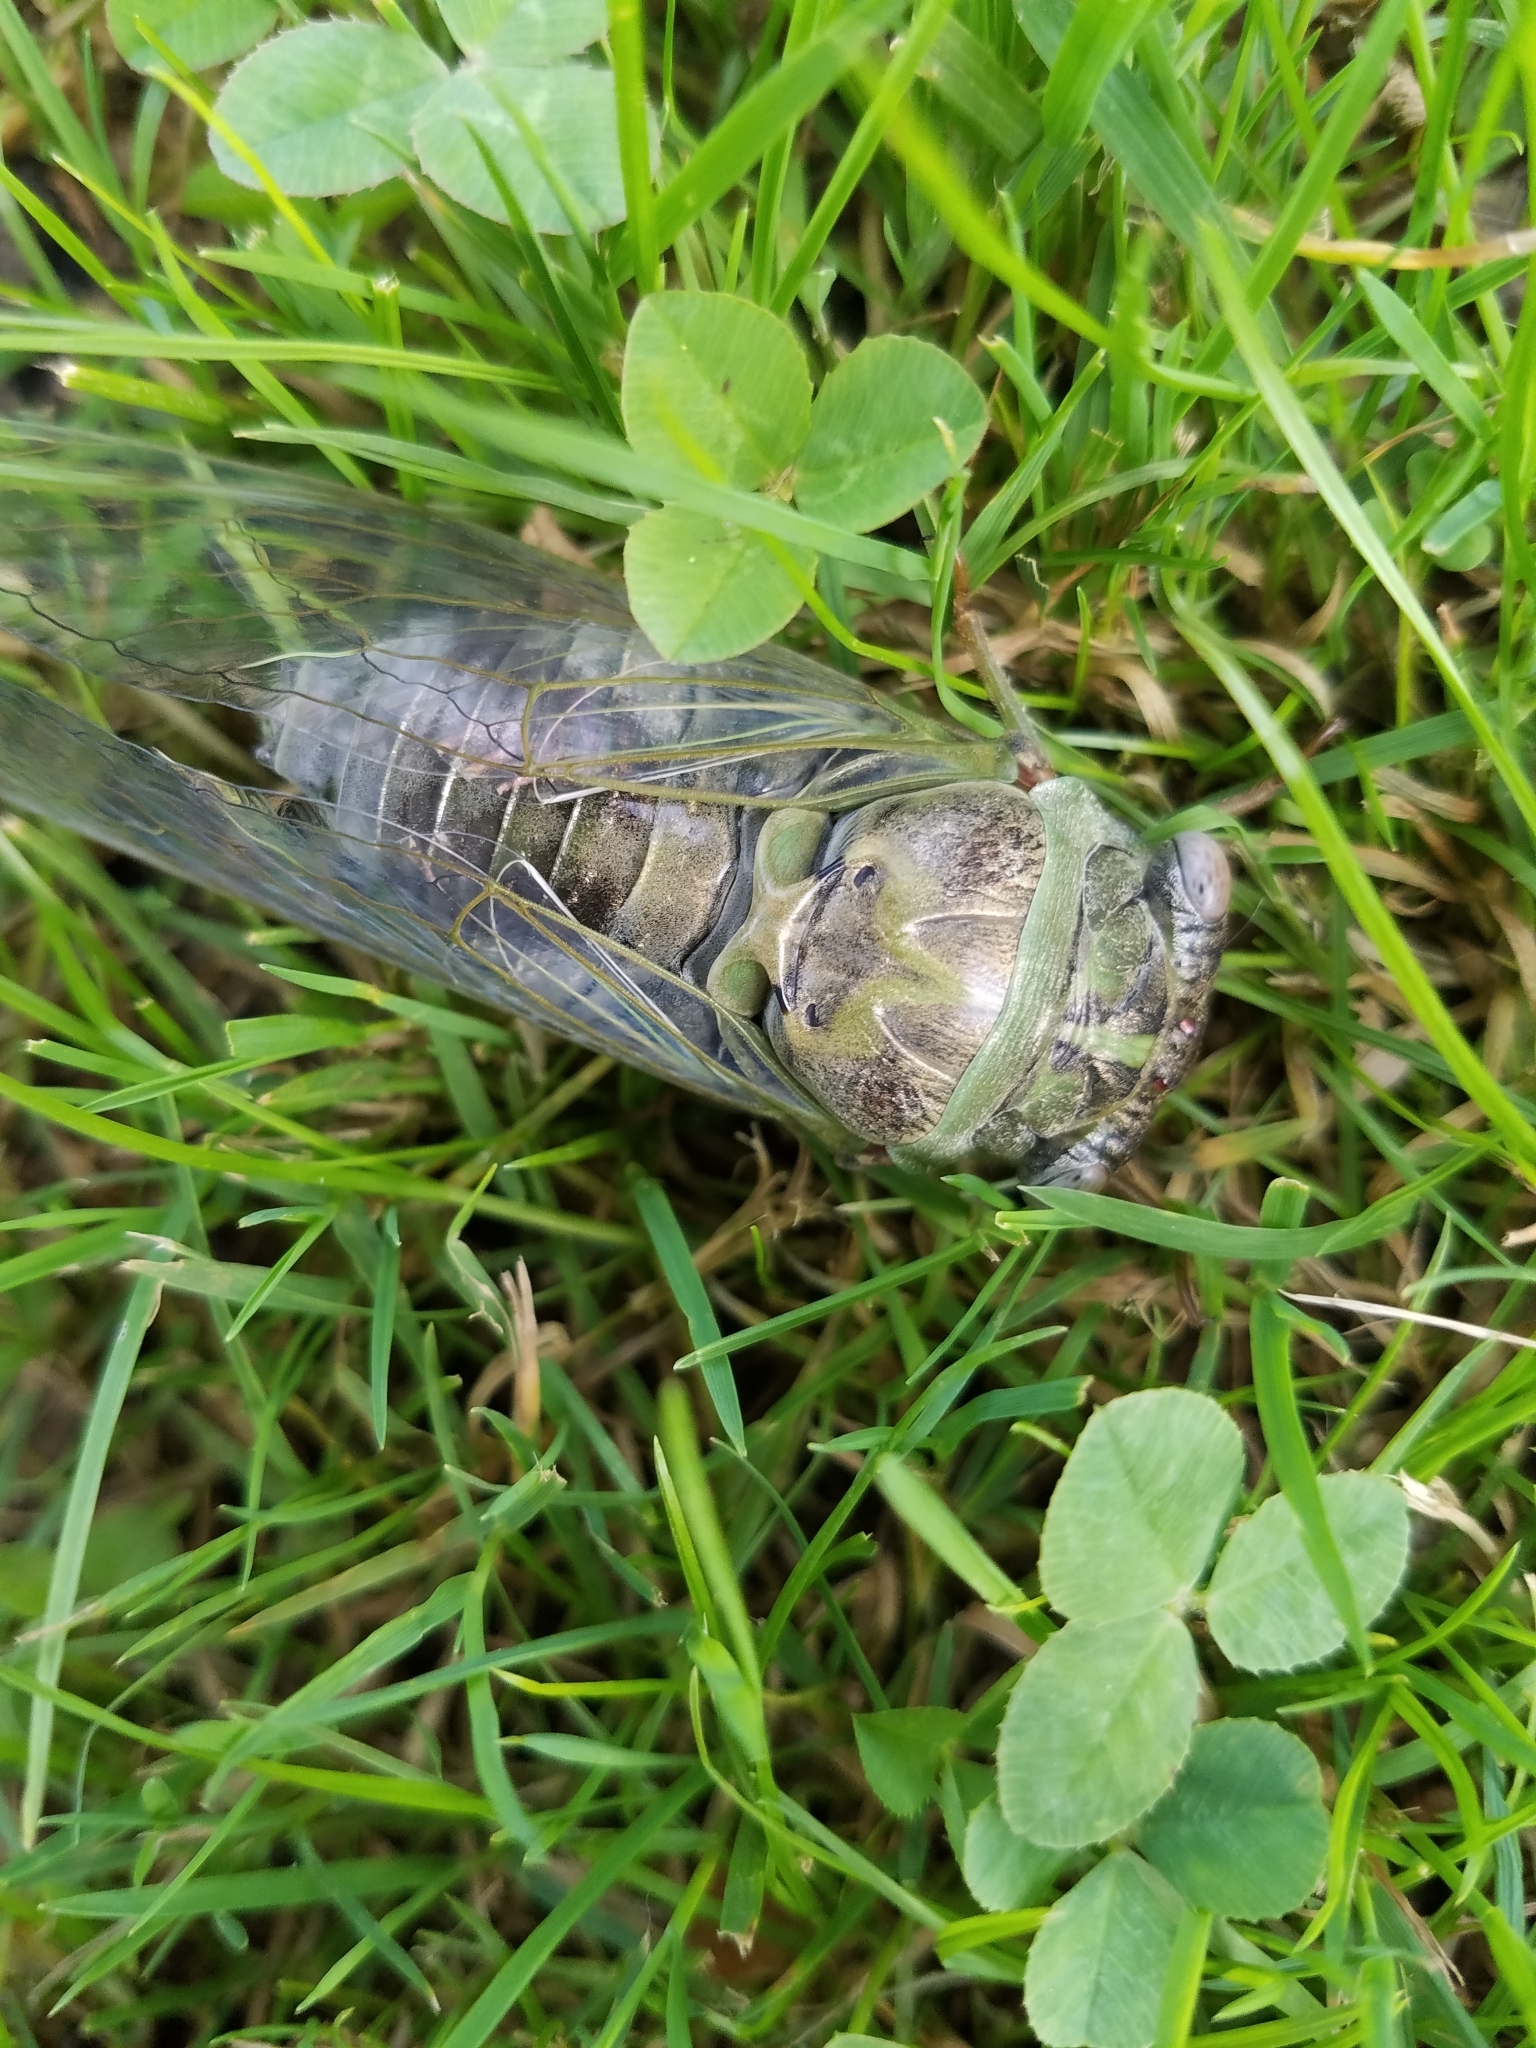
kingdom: Animalia
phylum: Arthropoda
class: Insecta
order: Hemiptera
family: Cicadidae
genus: Diceroprocta
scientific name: Diceroprocta grossa
